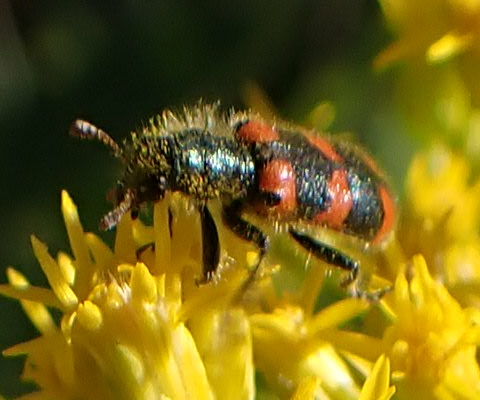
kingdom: Animalia
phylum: Arthropoda
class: Insecta
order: Coleoptera
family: Cleridae
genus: Trichodes
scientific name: Trichodes nutalli
